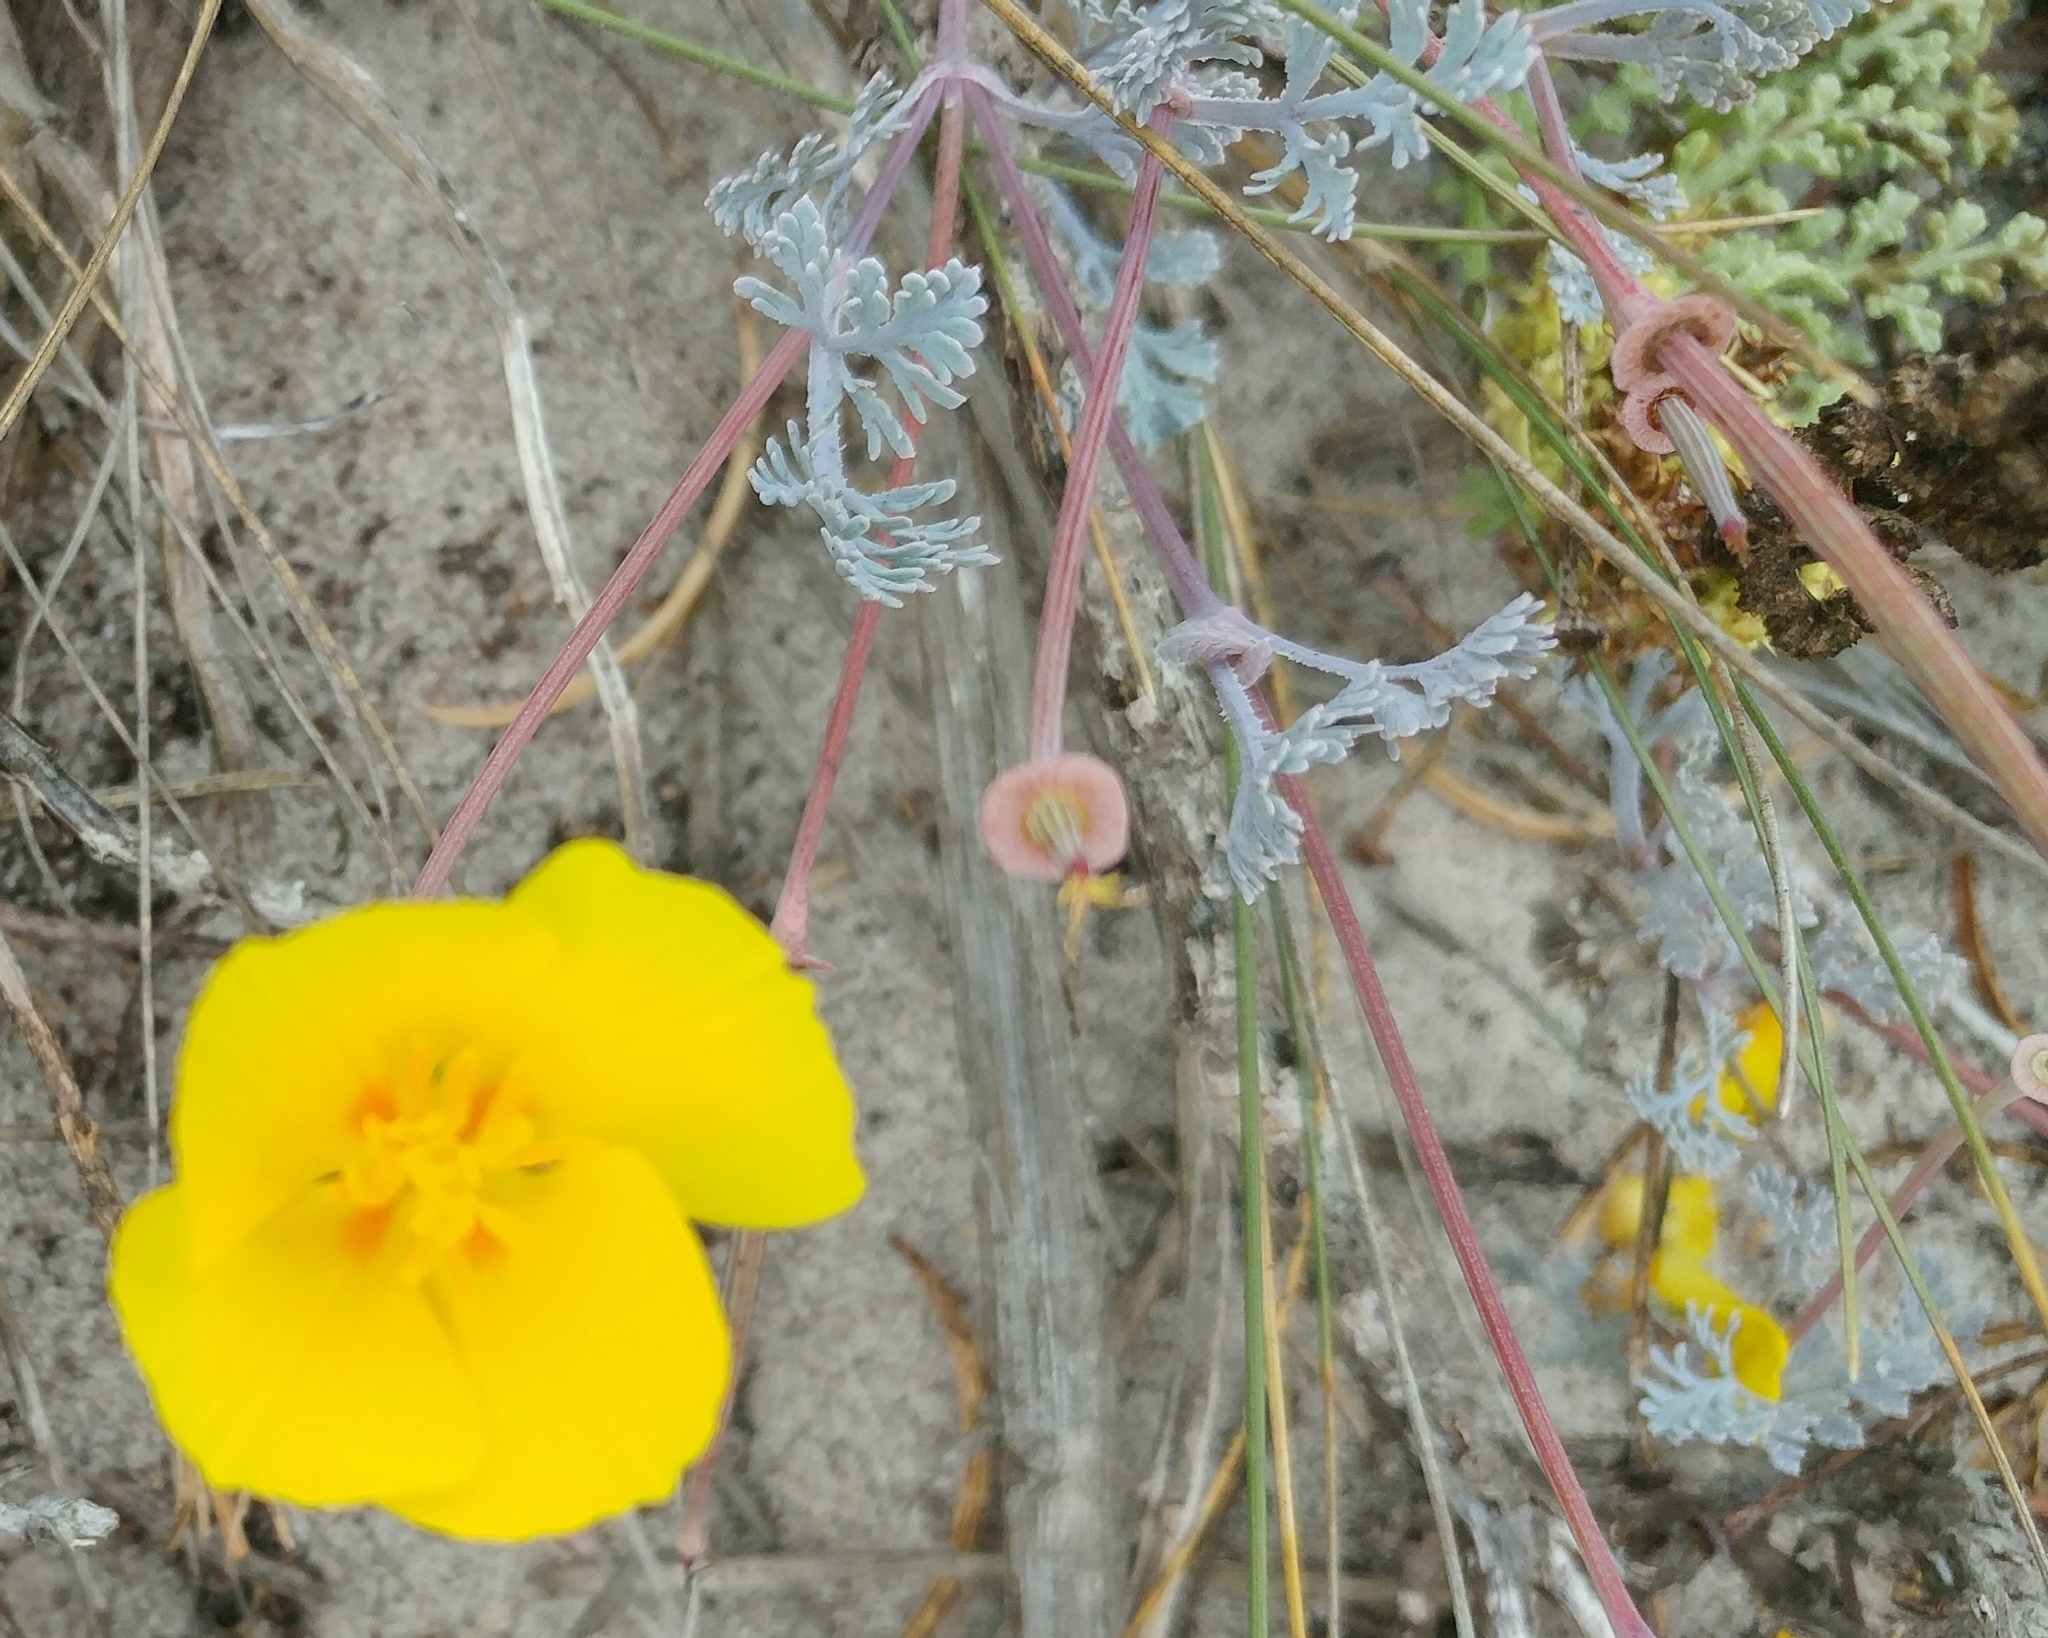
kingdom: Plantae
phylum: Tracheophyta
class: Magnoliopsida
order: Ranunculales
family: Papaveraceae
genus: Eschscholzia
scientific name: Eschscholzia californica
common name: California poppy
